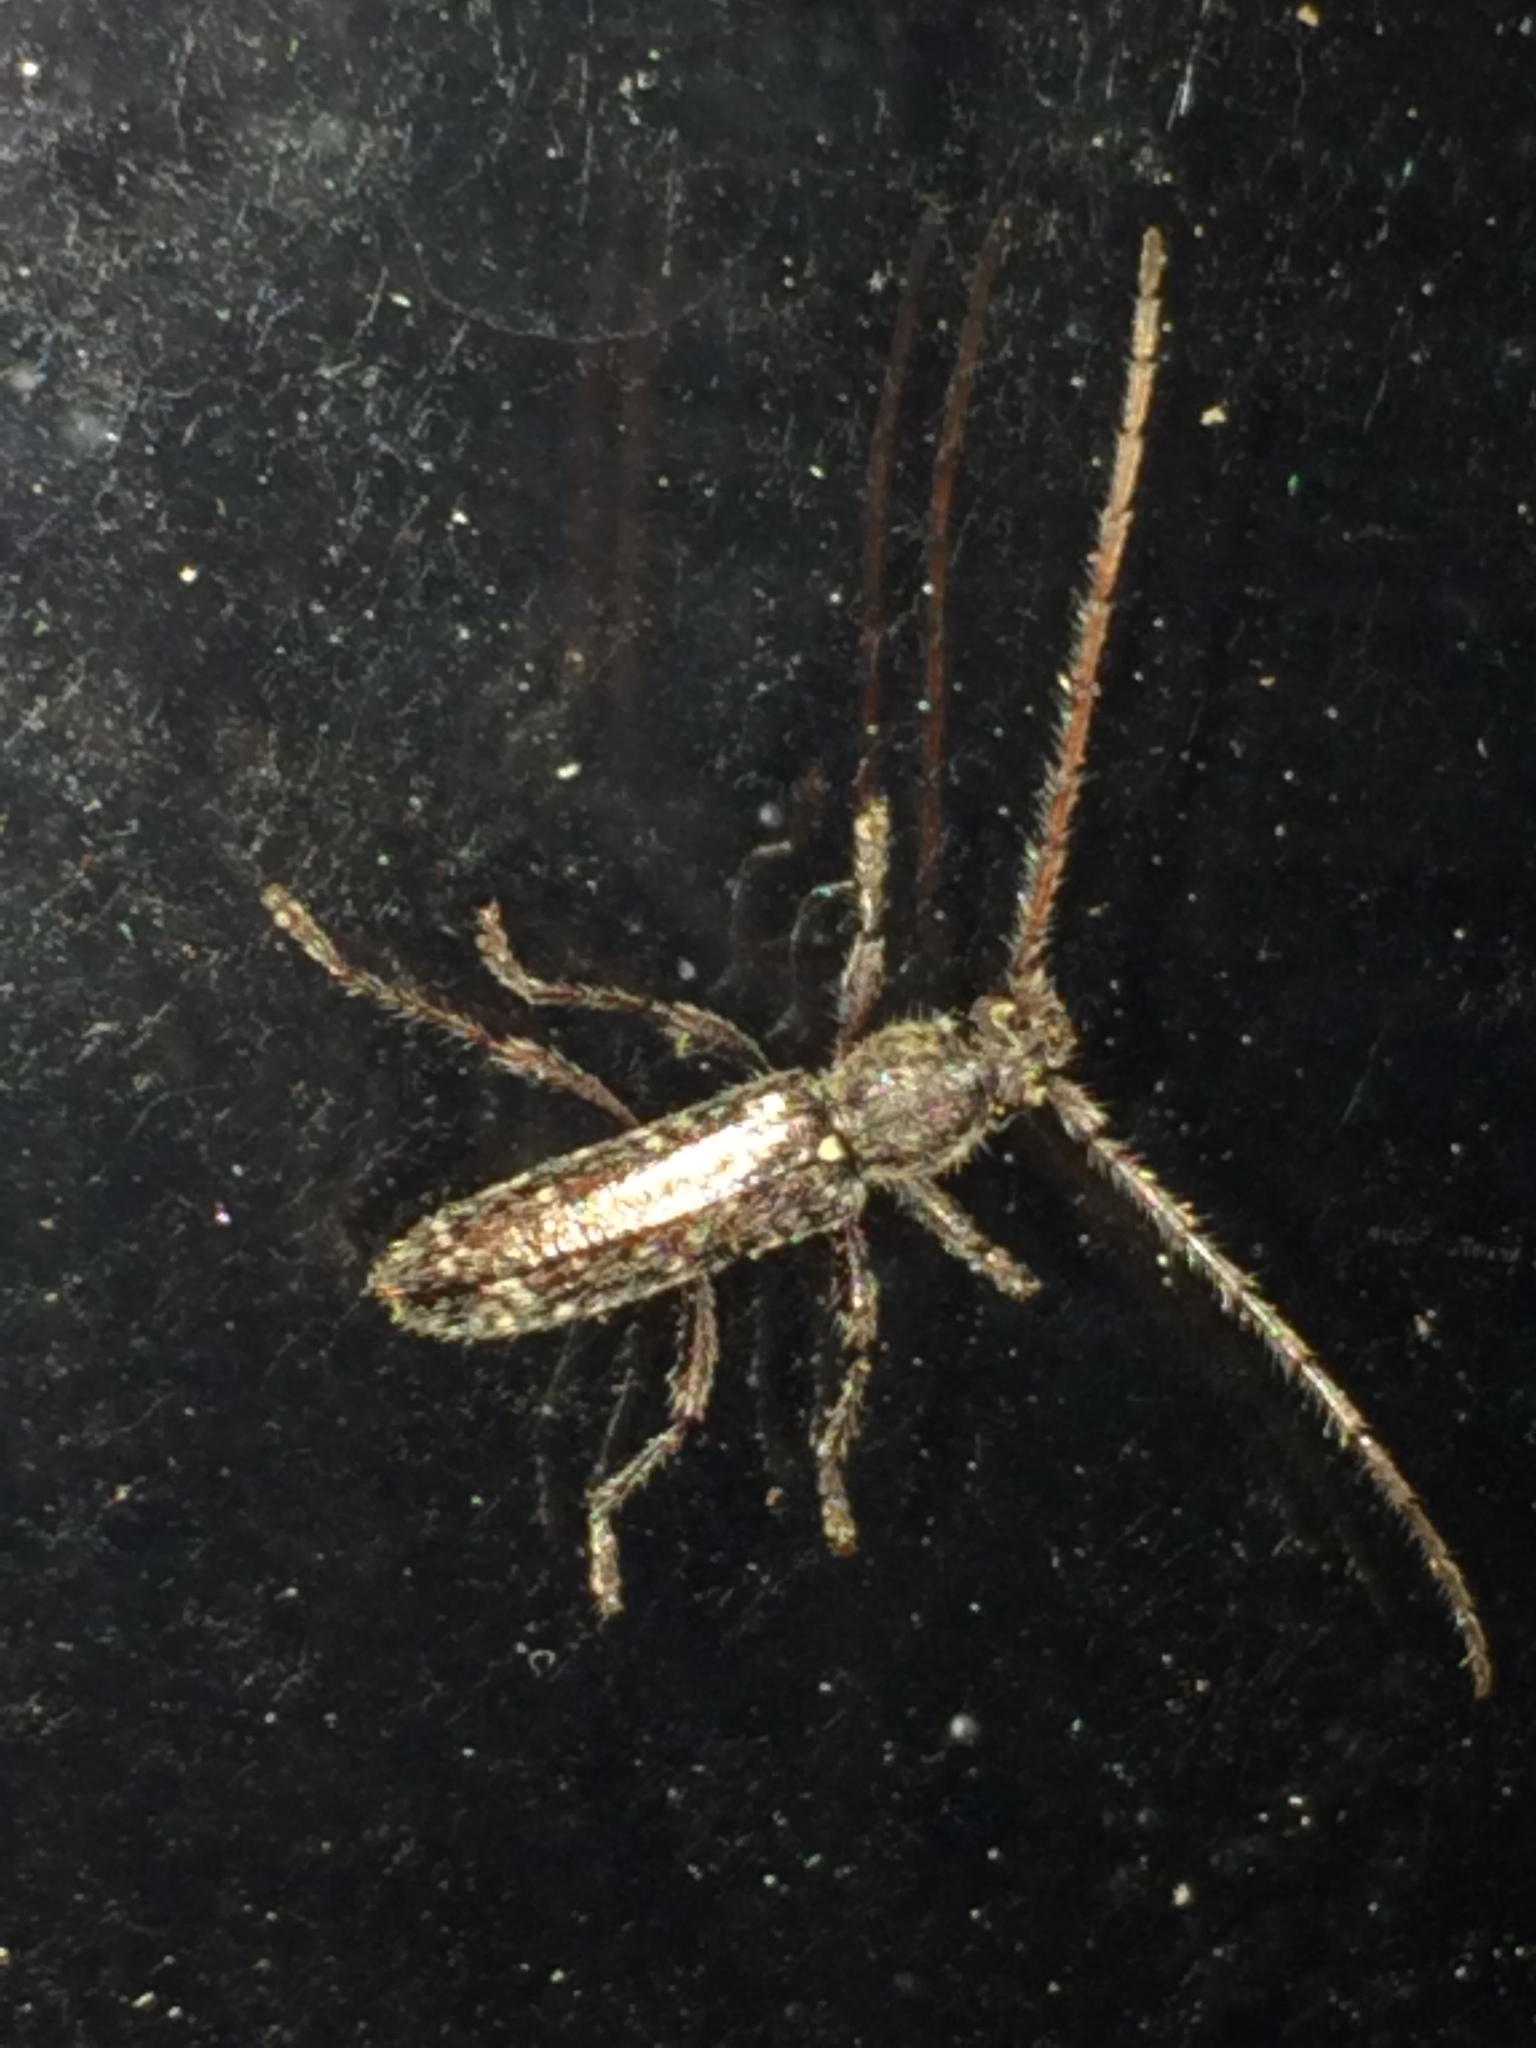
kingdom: Animalia
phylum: Arthropoda
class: Insecta
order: Coleoptera
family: Cerambycidae
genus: Anelaphus
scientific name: Anelaphus pumilus
